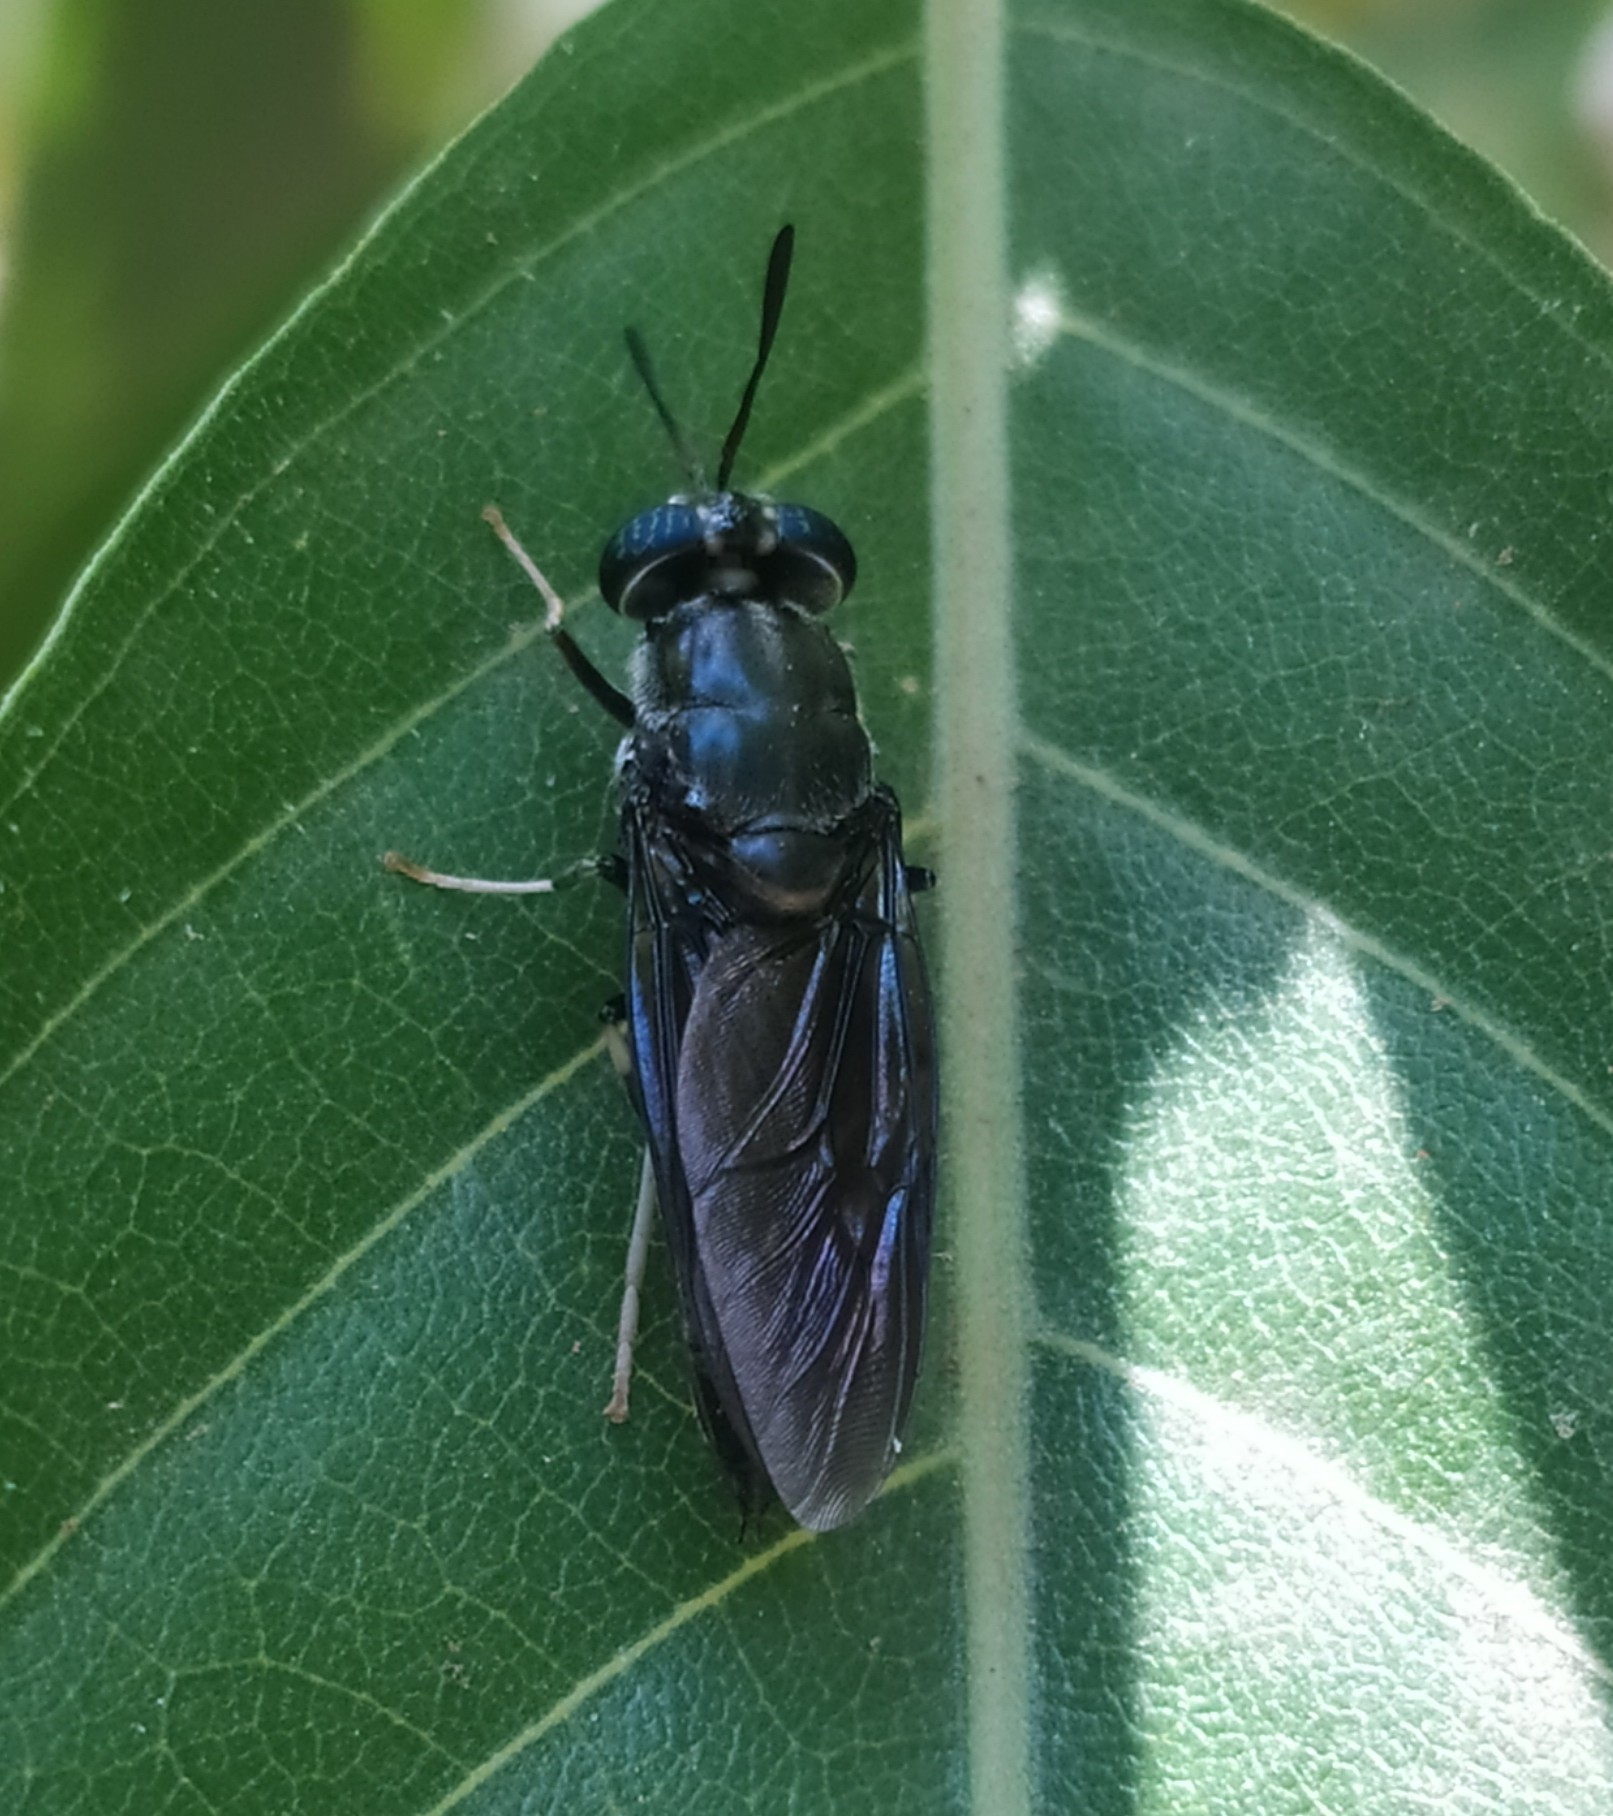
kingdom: Animalia
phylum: Arthropoda
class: Insecta
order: Diptera
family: Stratiomyidae
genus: Hermetia
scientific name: Hermetia illucens
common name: Black soldier fly
